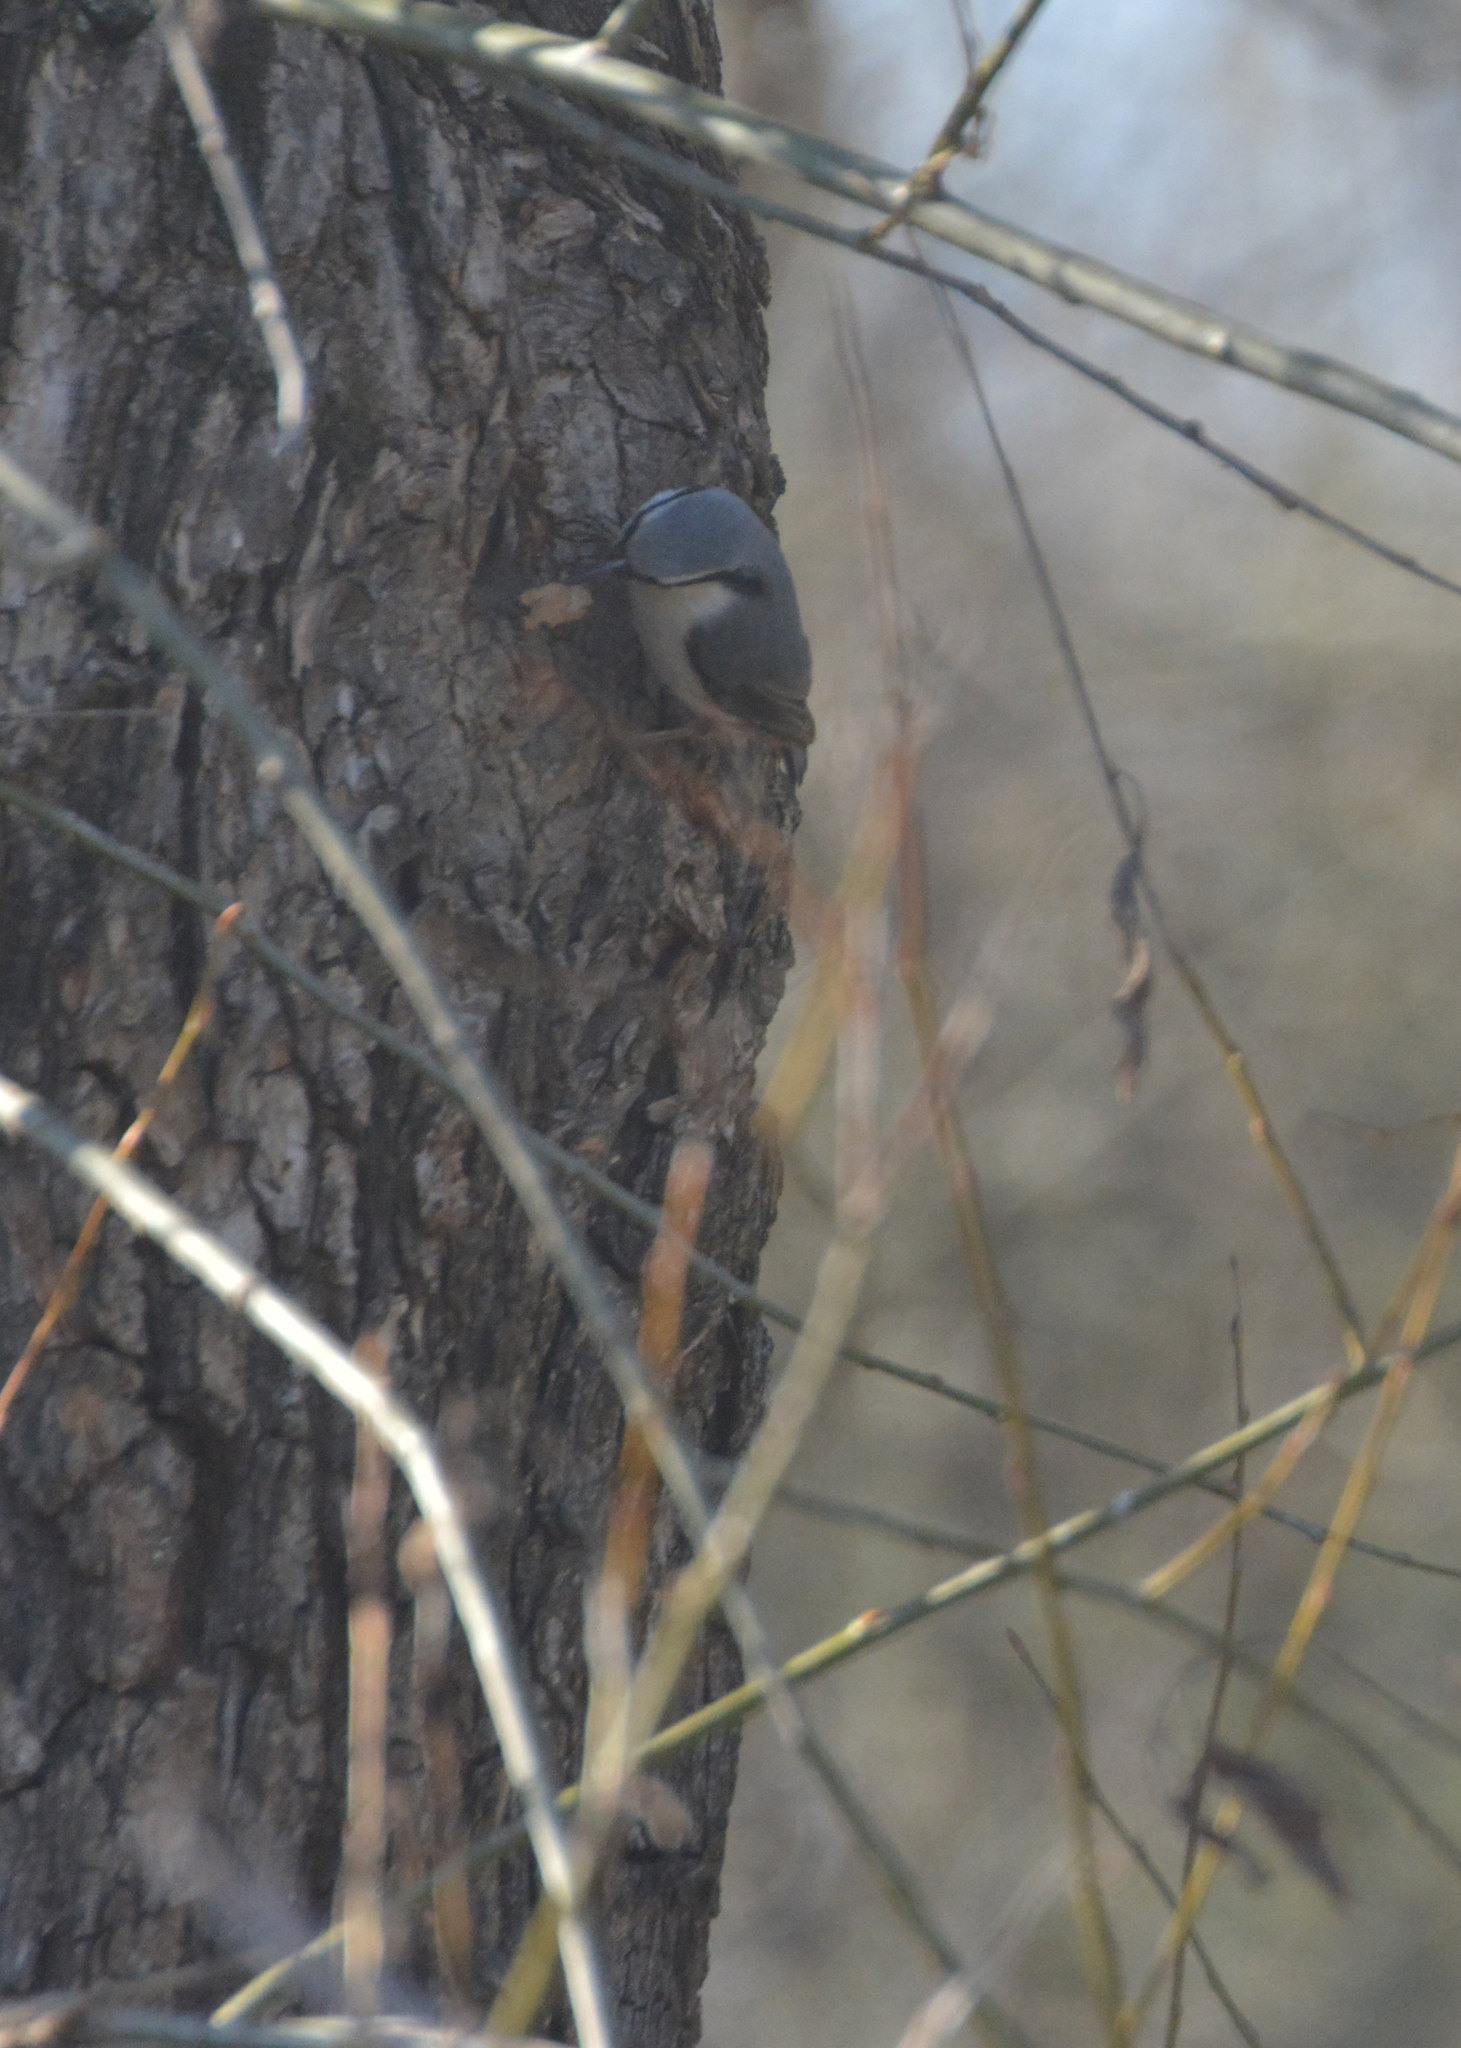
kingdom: Animalia
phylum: Chordata
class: Aves
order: Passeriformes
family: Sittidae
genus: Sitta
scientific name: Sitta europaea
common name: Eurasian nuthatch
